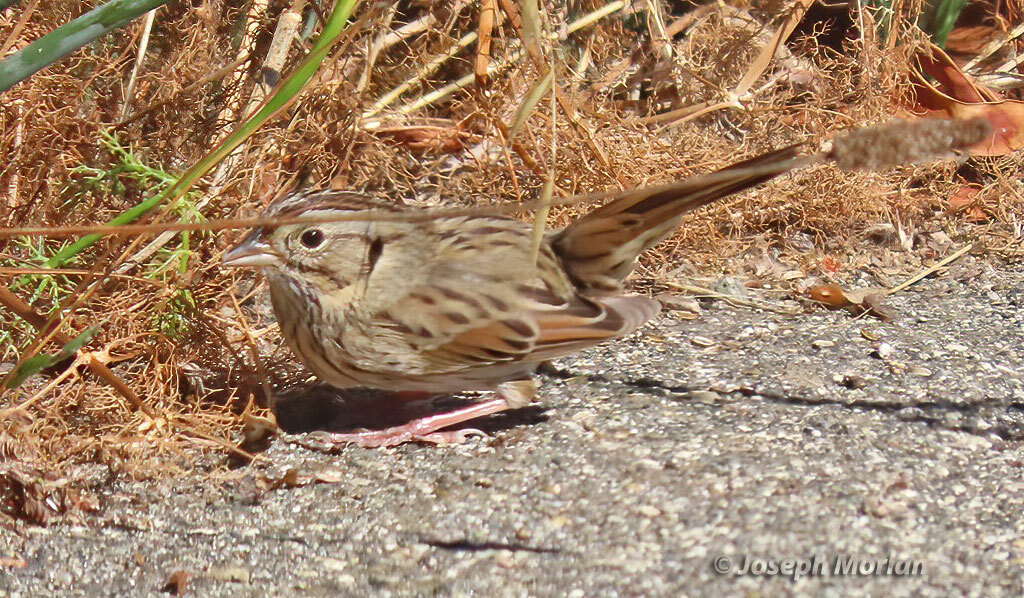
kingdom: Animalia
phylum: Chordata
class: Aves
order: Passeriformes
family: Passerellidae
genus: Melospiza
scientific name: Melospiza lincolnii
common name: Lincoln's sparrow
